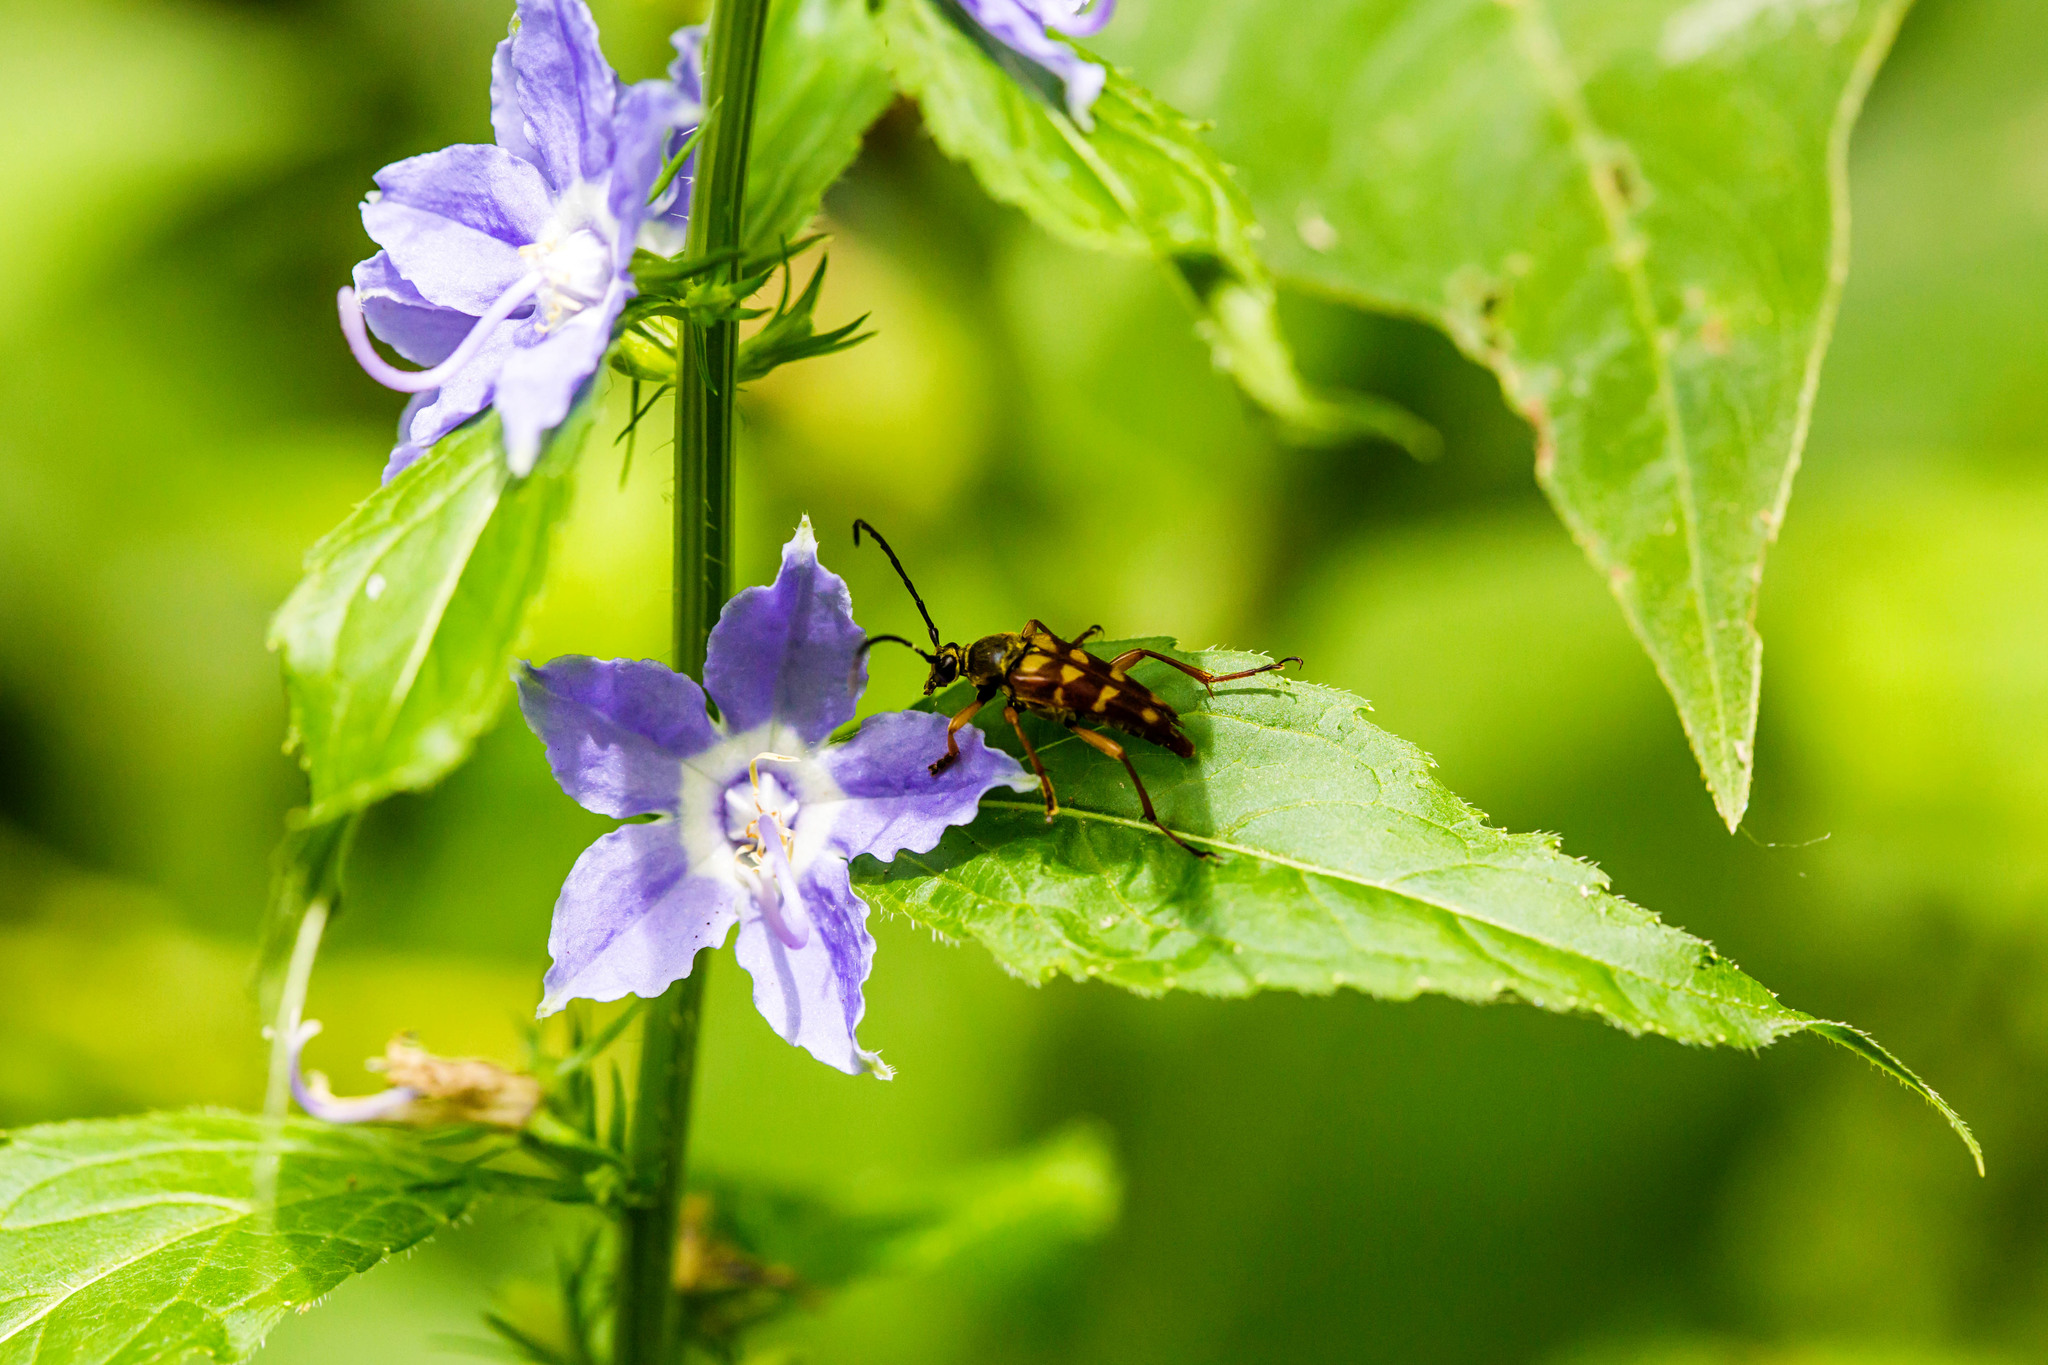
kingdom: Animalia
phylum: Arthropoda
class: Insecta
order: Coleoptera
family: Cerambycidae
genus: Typocerus
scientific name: Typocerus velutinus
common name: Banded longhorn beetle
